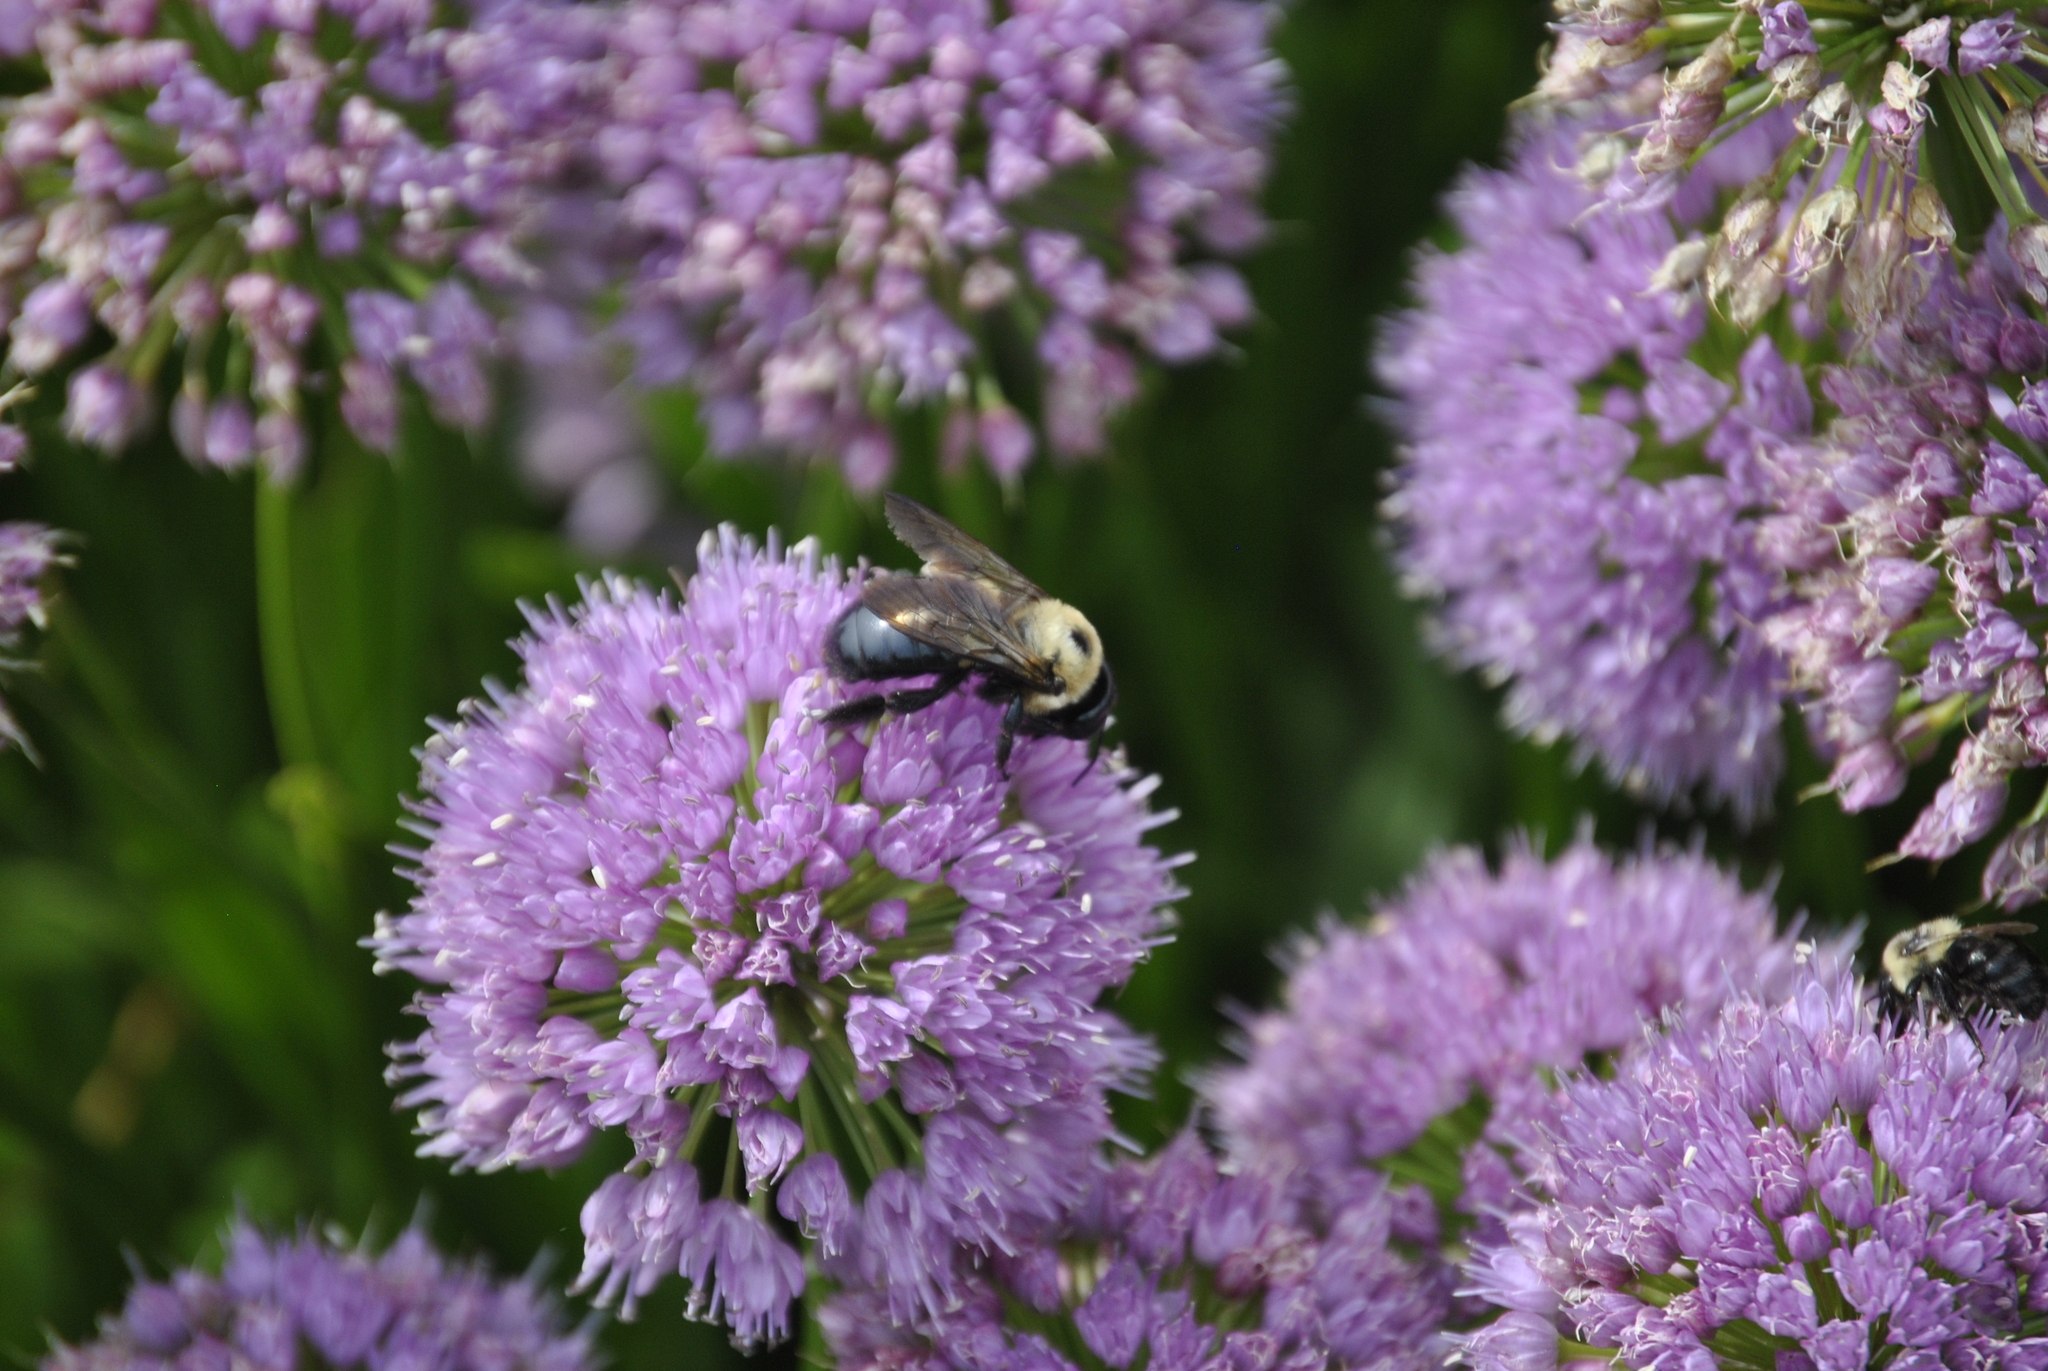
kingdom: Animalia
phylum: Arthropoda
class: Insecta
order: Hymenoptera
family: Apidae
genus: Xylocopa
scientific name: Xylocopa virginica
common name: Carpenter bee
